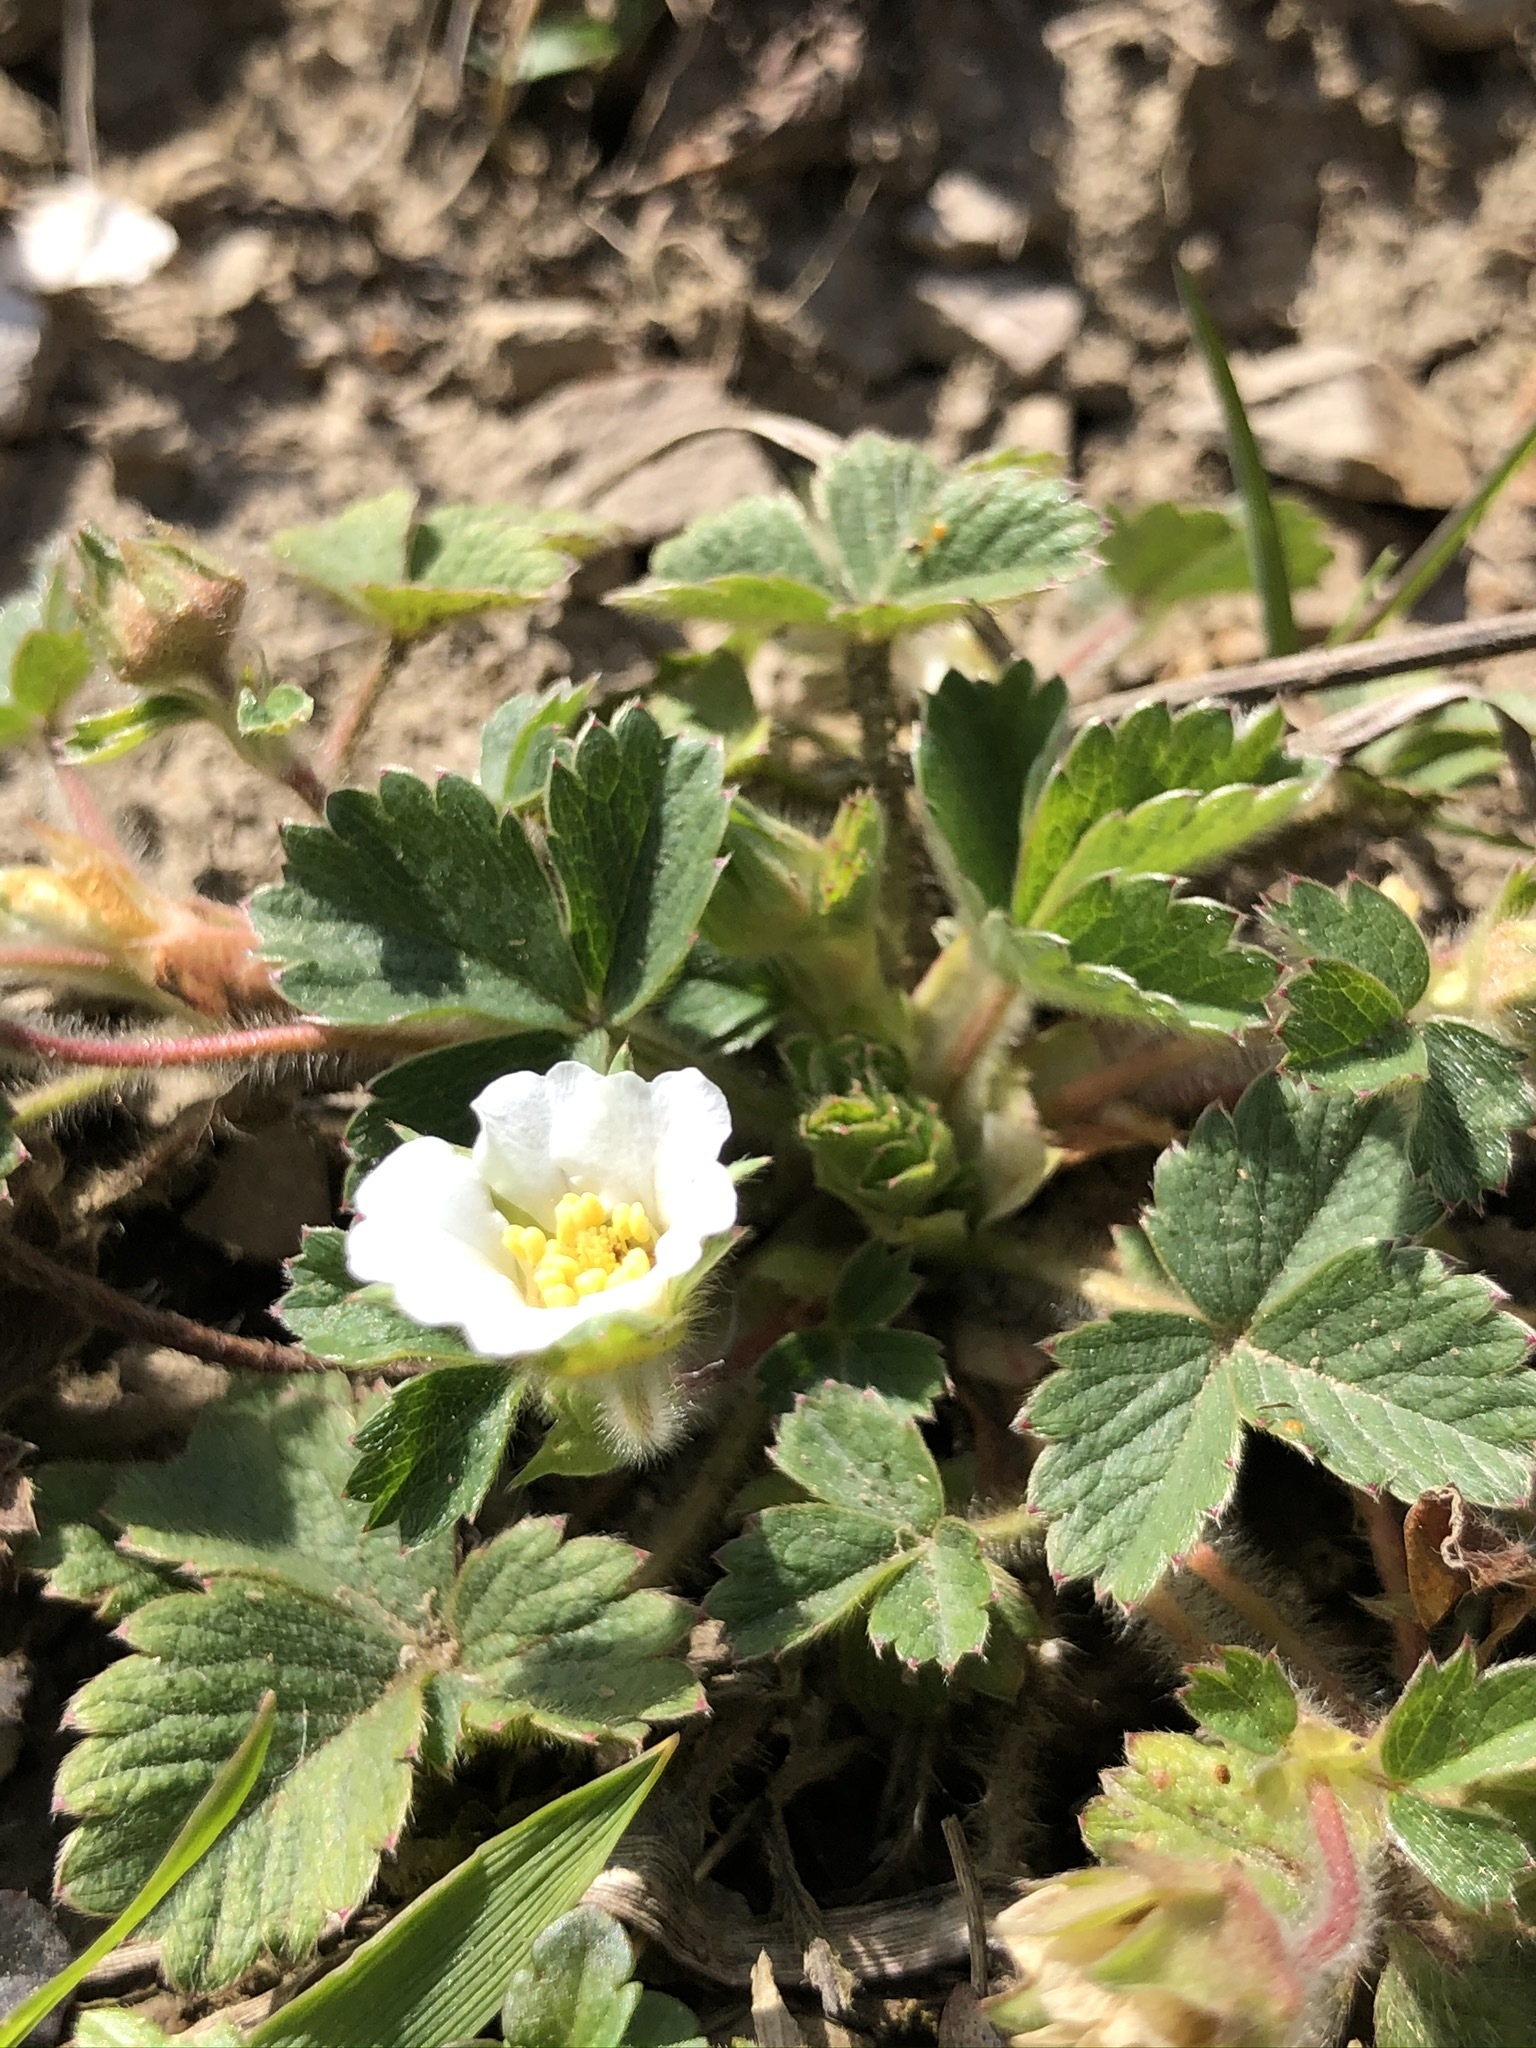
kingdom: Plantae
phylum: Tracheophyta
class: Magnoliopsida
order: Rosales
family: Rosaceae
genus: Potentilla
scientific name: Potentilla sterilis
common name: Barren strawberry
